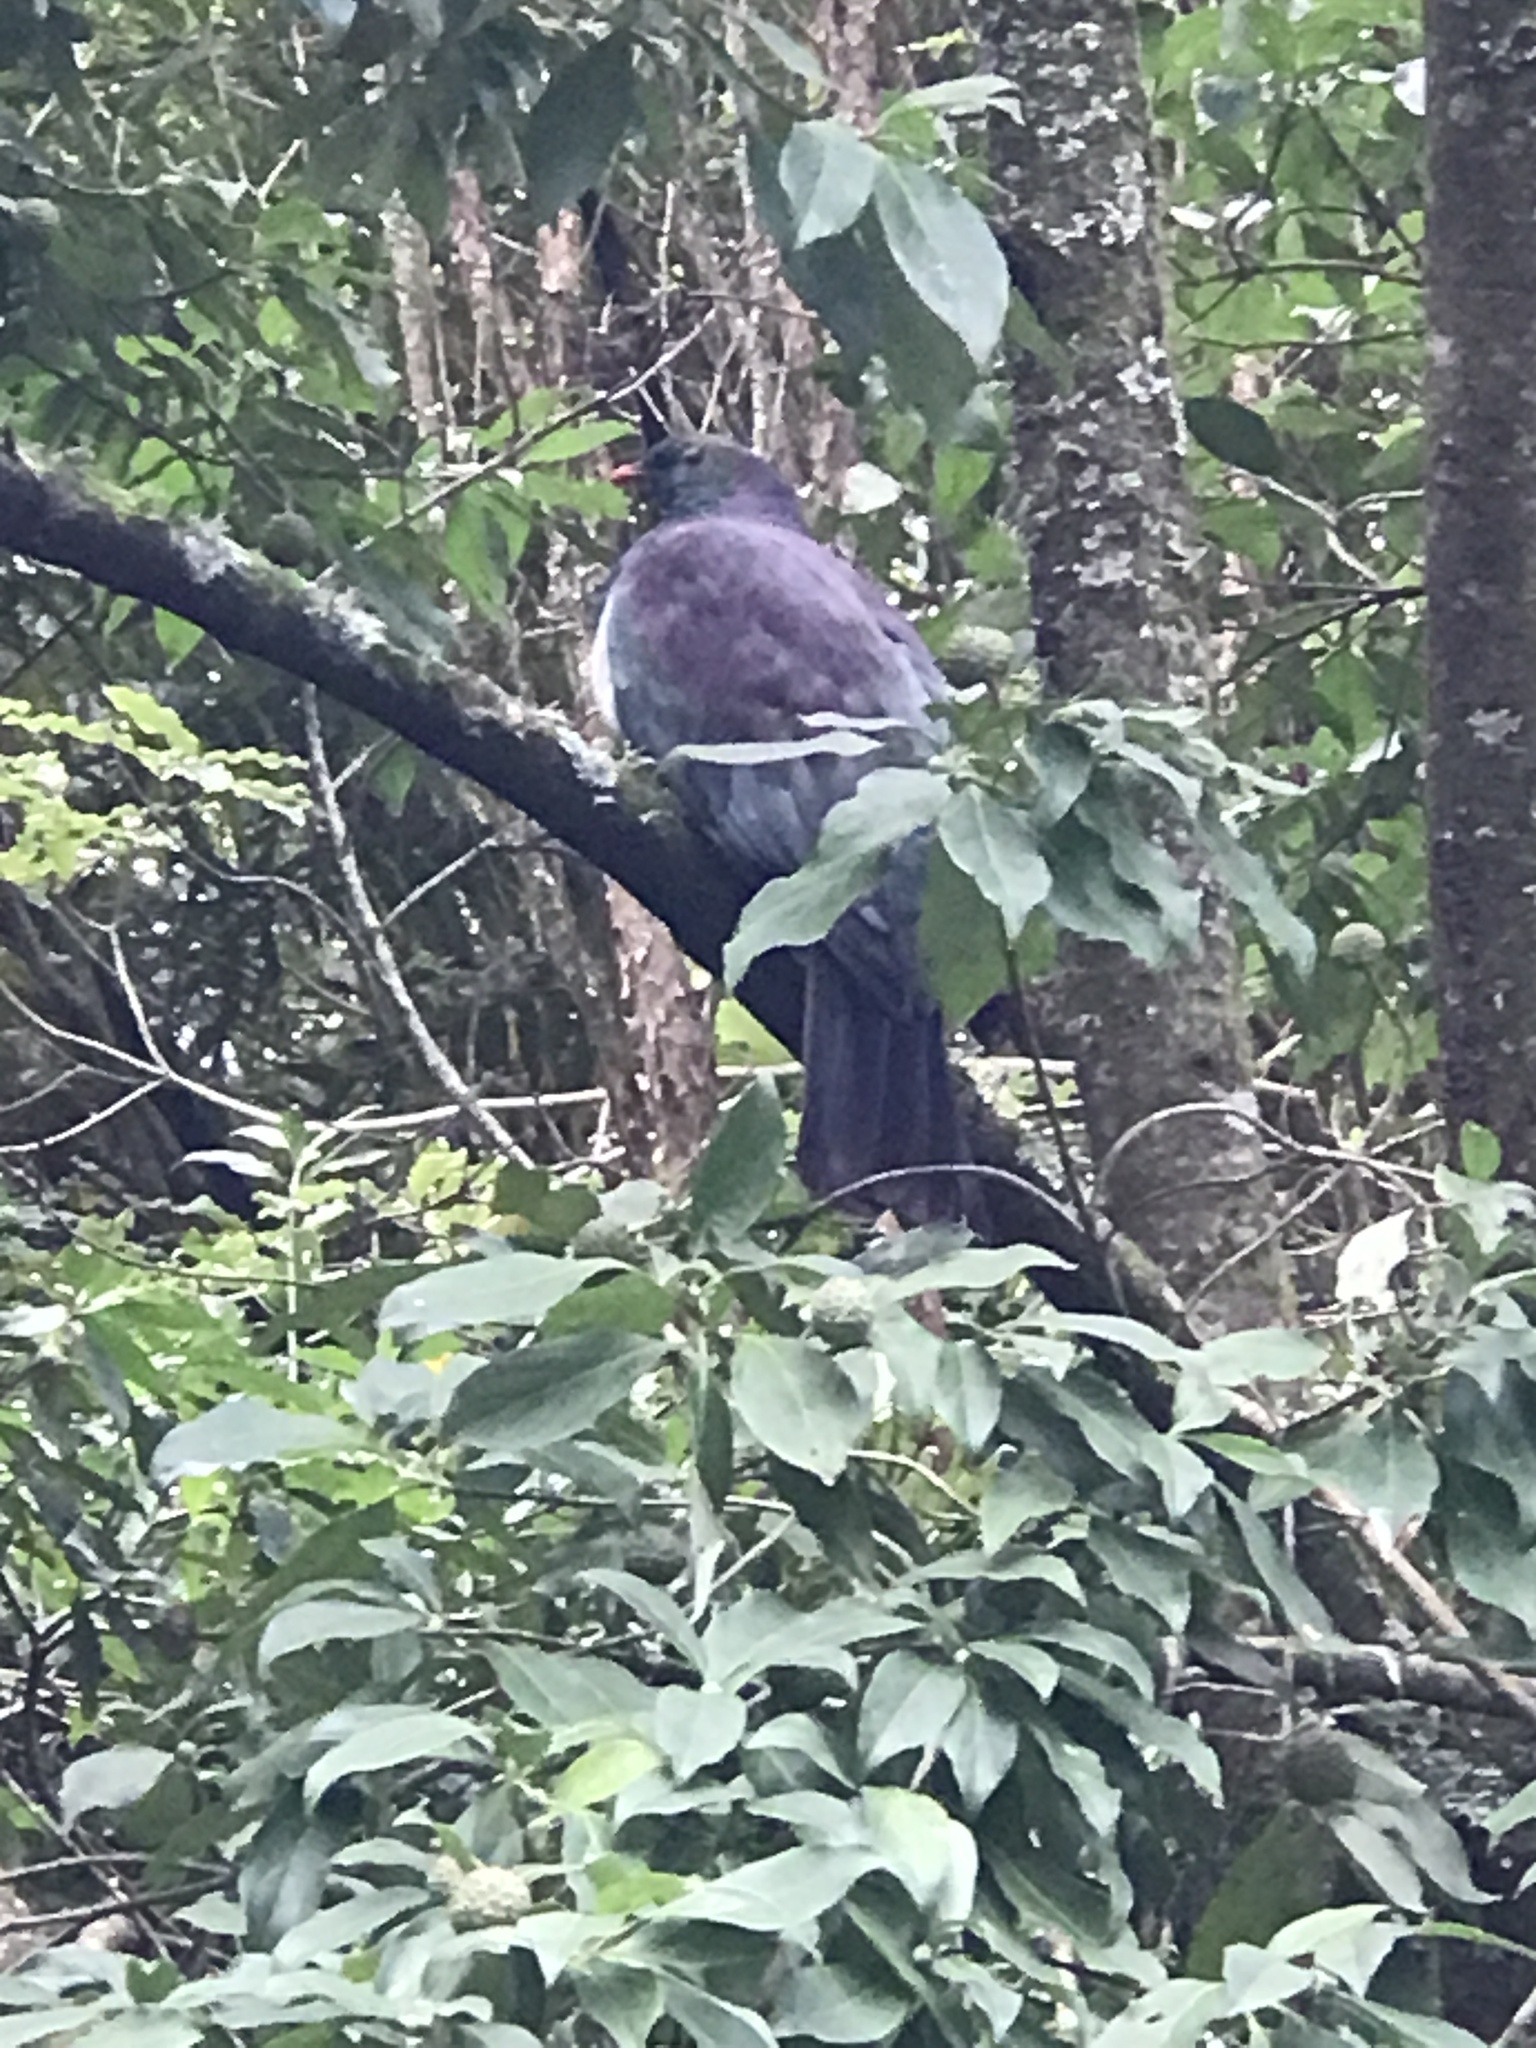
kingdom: Animalia
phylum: Chordata
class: Aves
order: Columbiformes
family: Columbidae
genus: Hemiphaga
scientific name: Hemiphaga novaeseelandiae
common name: New zealand pigeon
